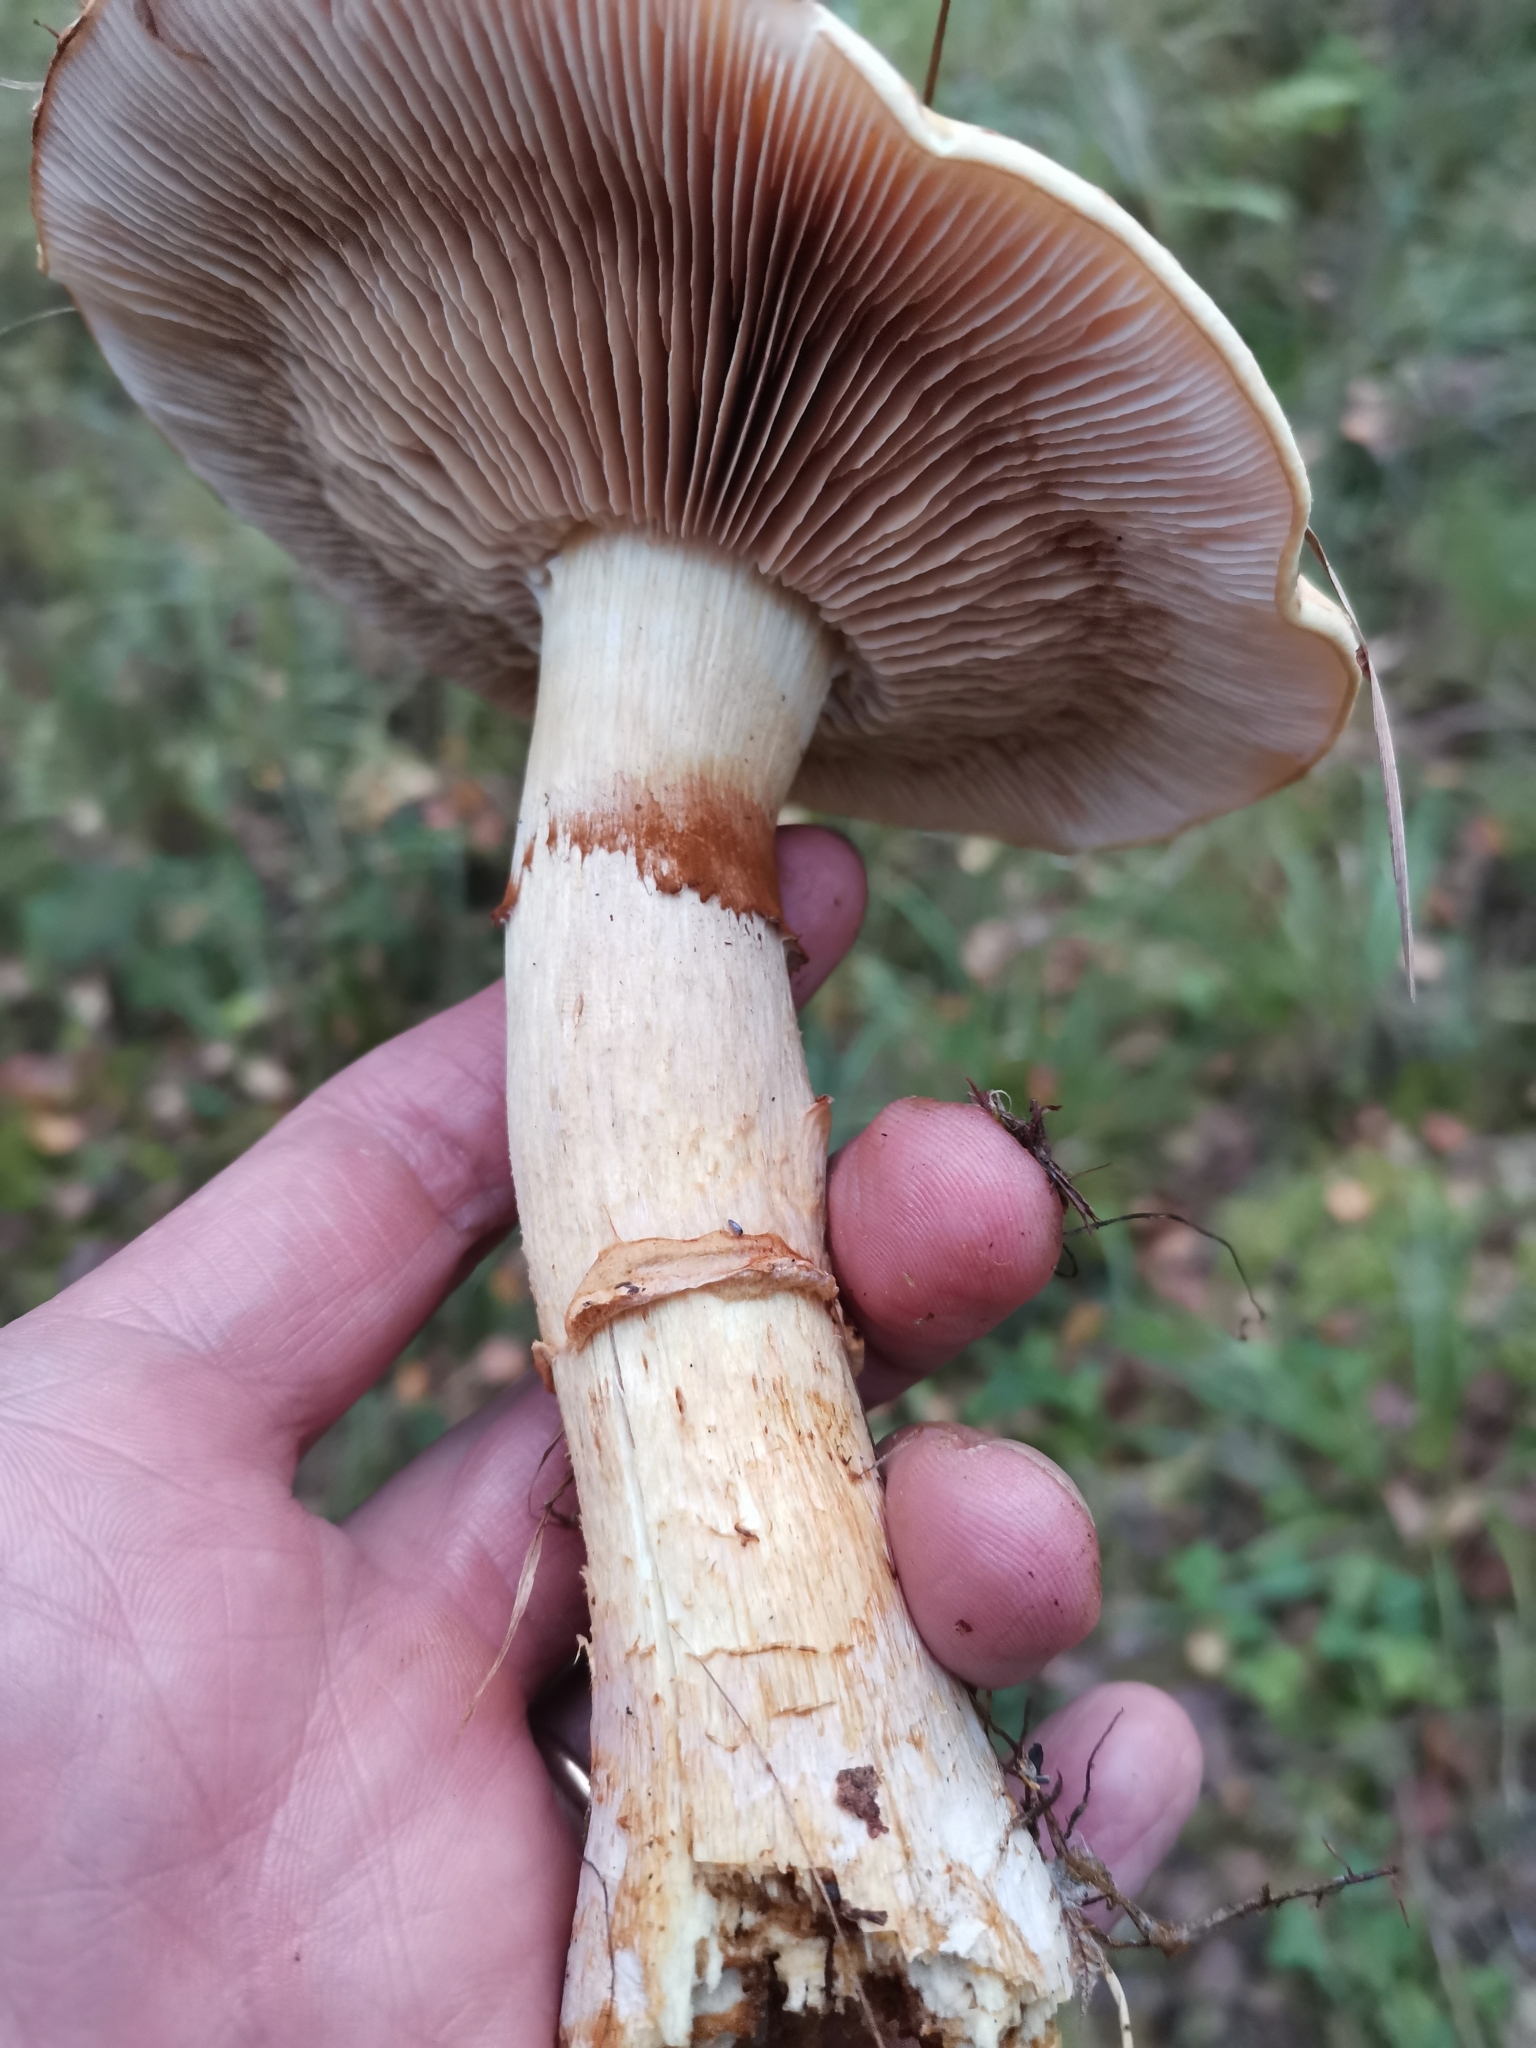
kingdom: Fungi
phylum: Basidiomycota
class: Agaricomycetes
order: Agaricales
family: Cortinariaceae
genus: Phlegmacium
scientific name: Phlegmacium triumphans
